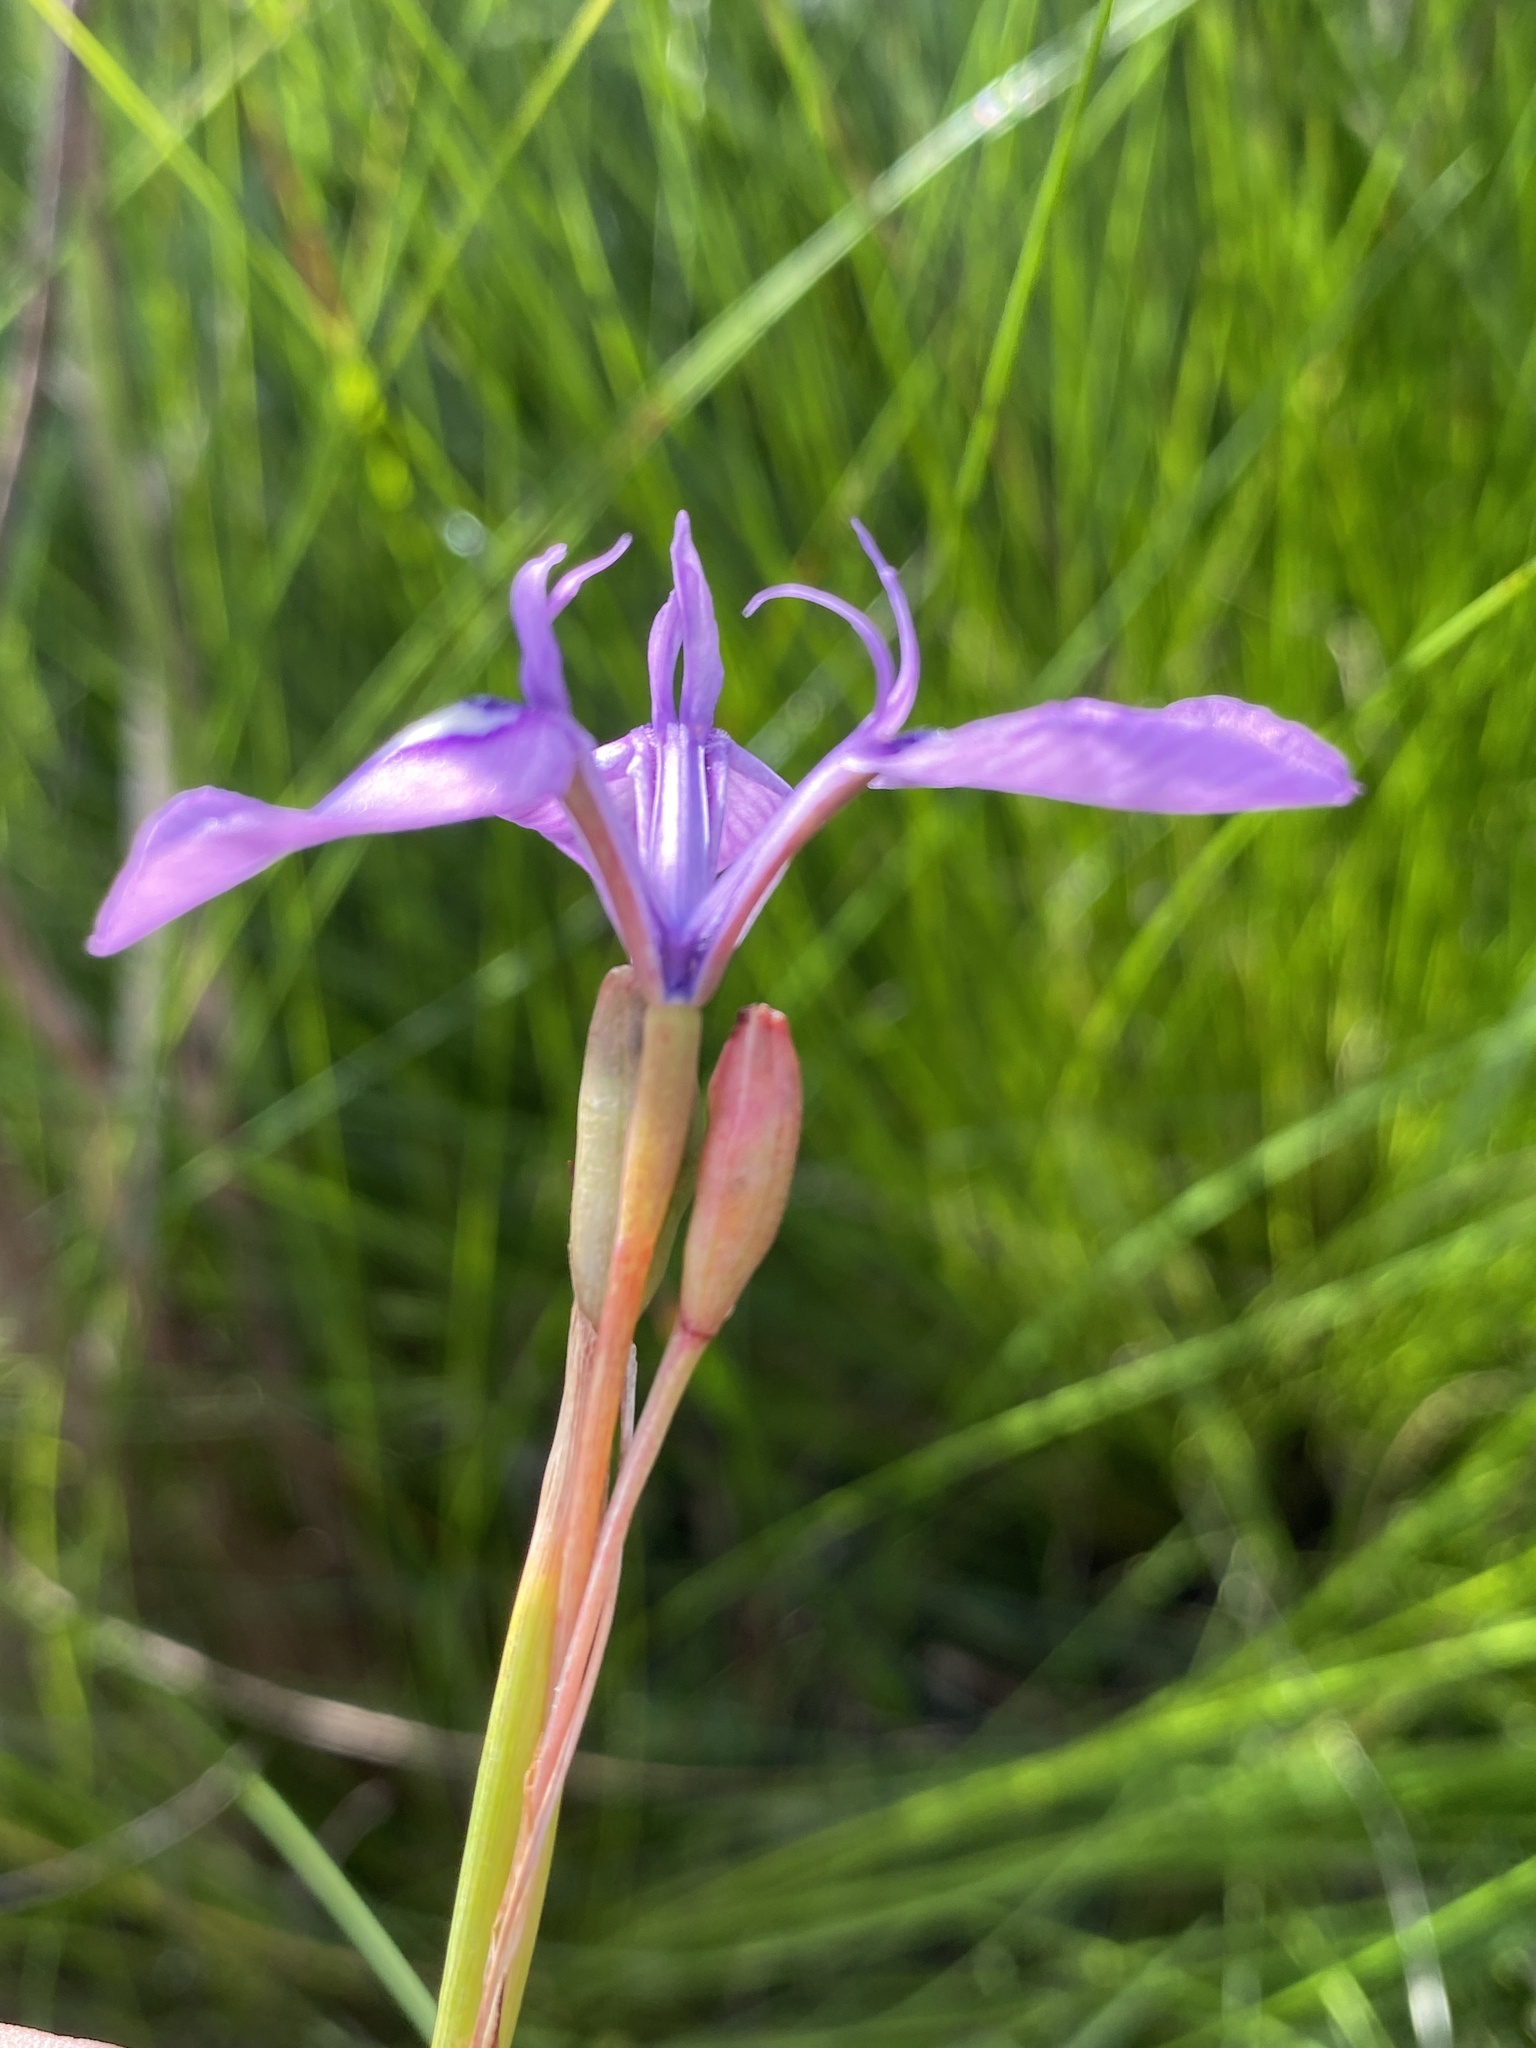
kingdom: Plantae
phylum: Tracheophyta
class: Liliopsida
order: Asparagales
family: Iridaceae
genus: Moraea
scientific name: Moraea tripetala
